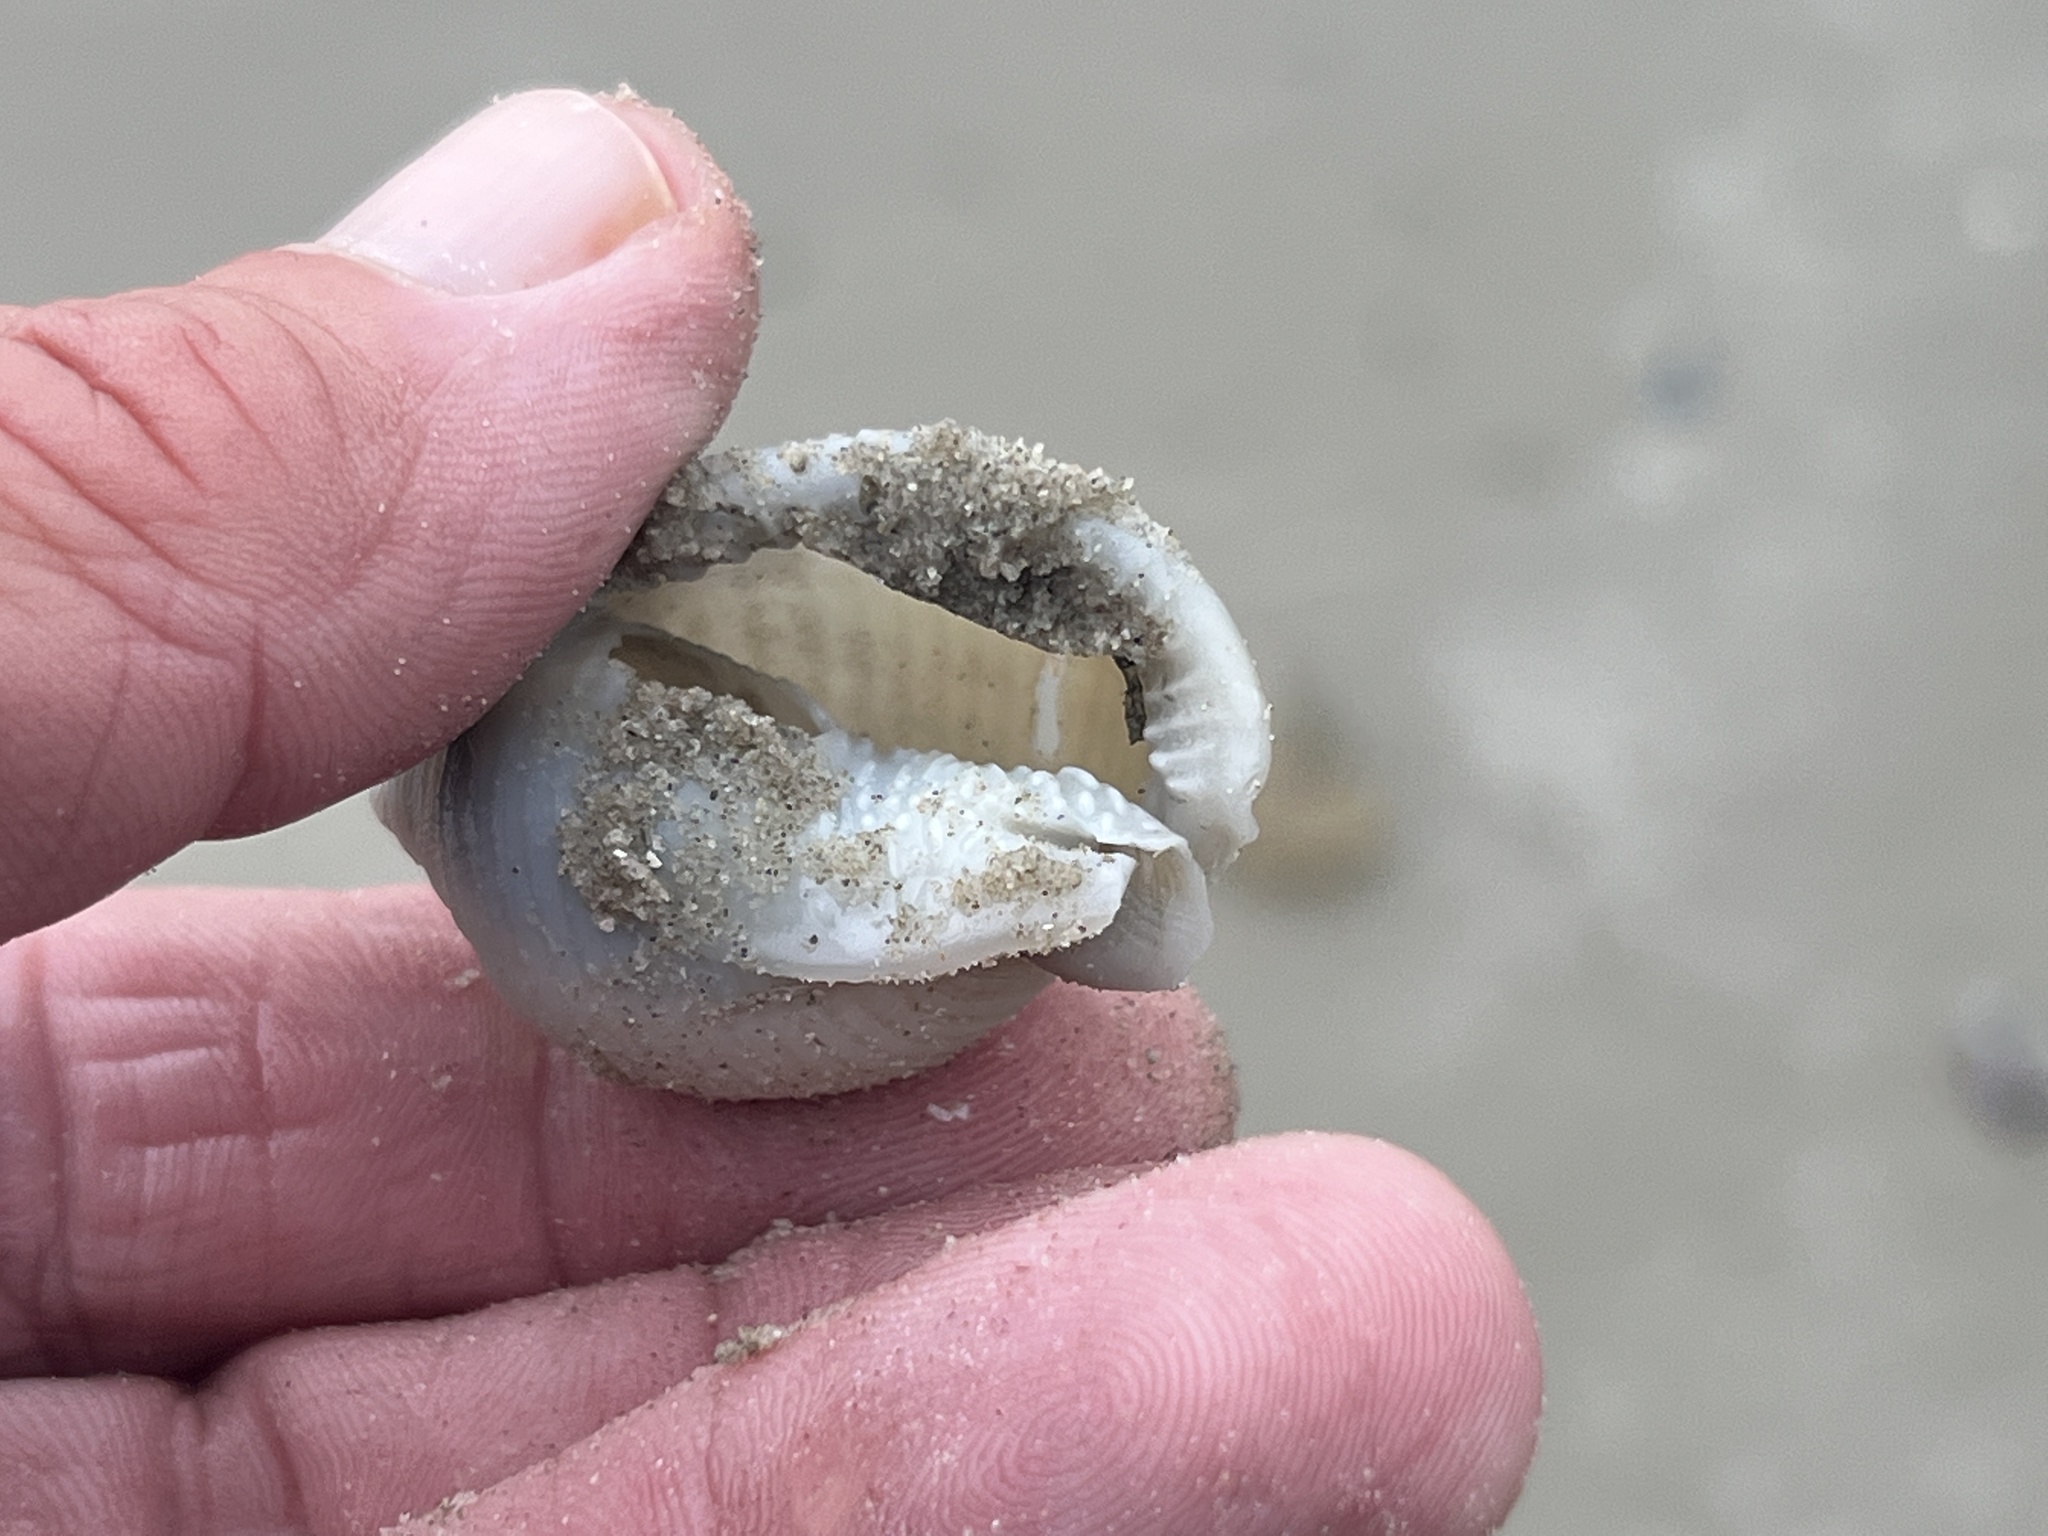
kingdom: Animalia
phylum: Mollusca
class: Gastropoda
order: Littorinimorpha
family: Cassidae
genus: Semicassis
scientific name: Semicassis granulata
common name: Scotch bonnet
